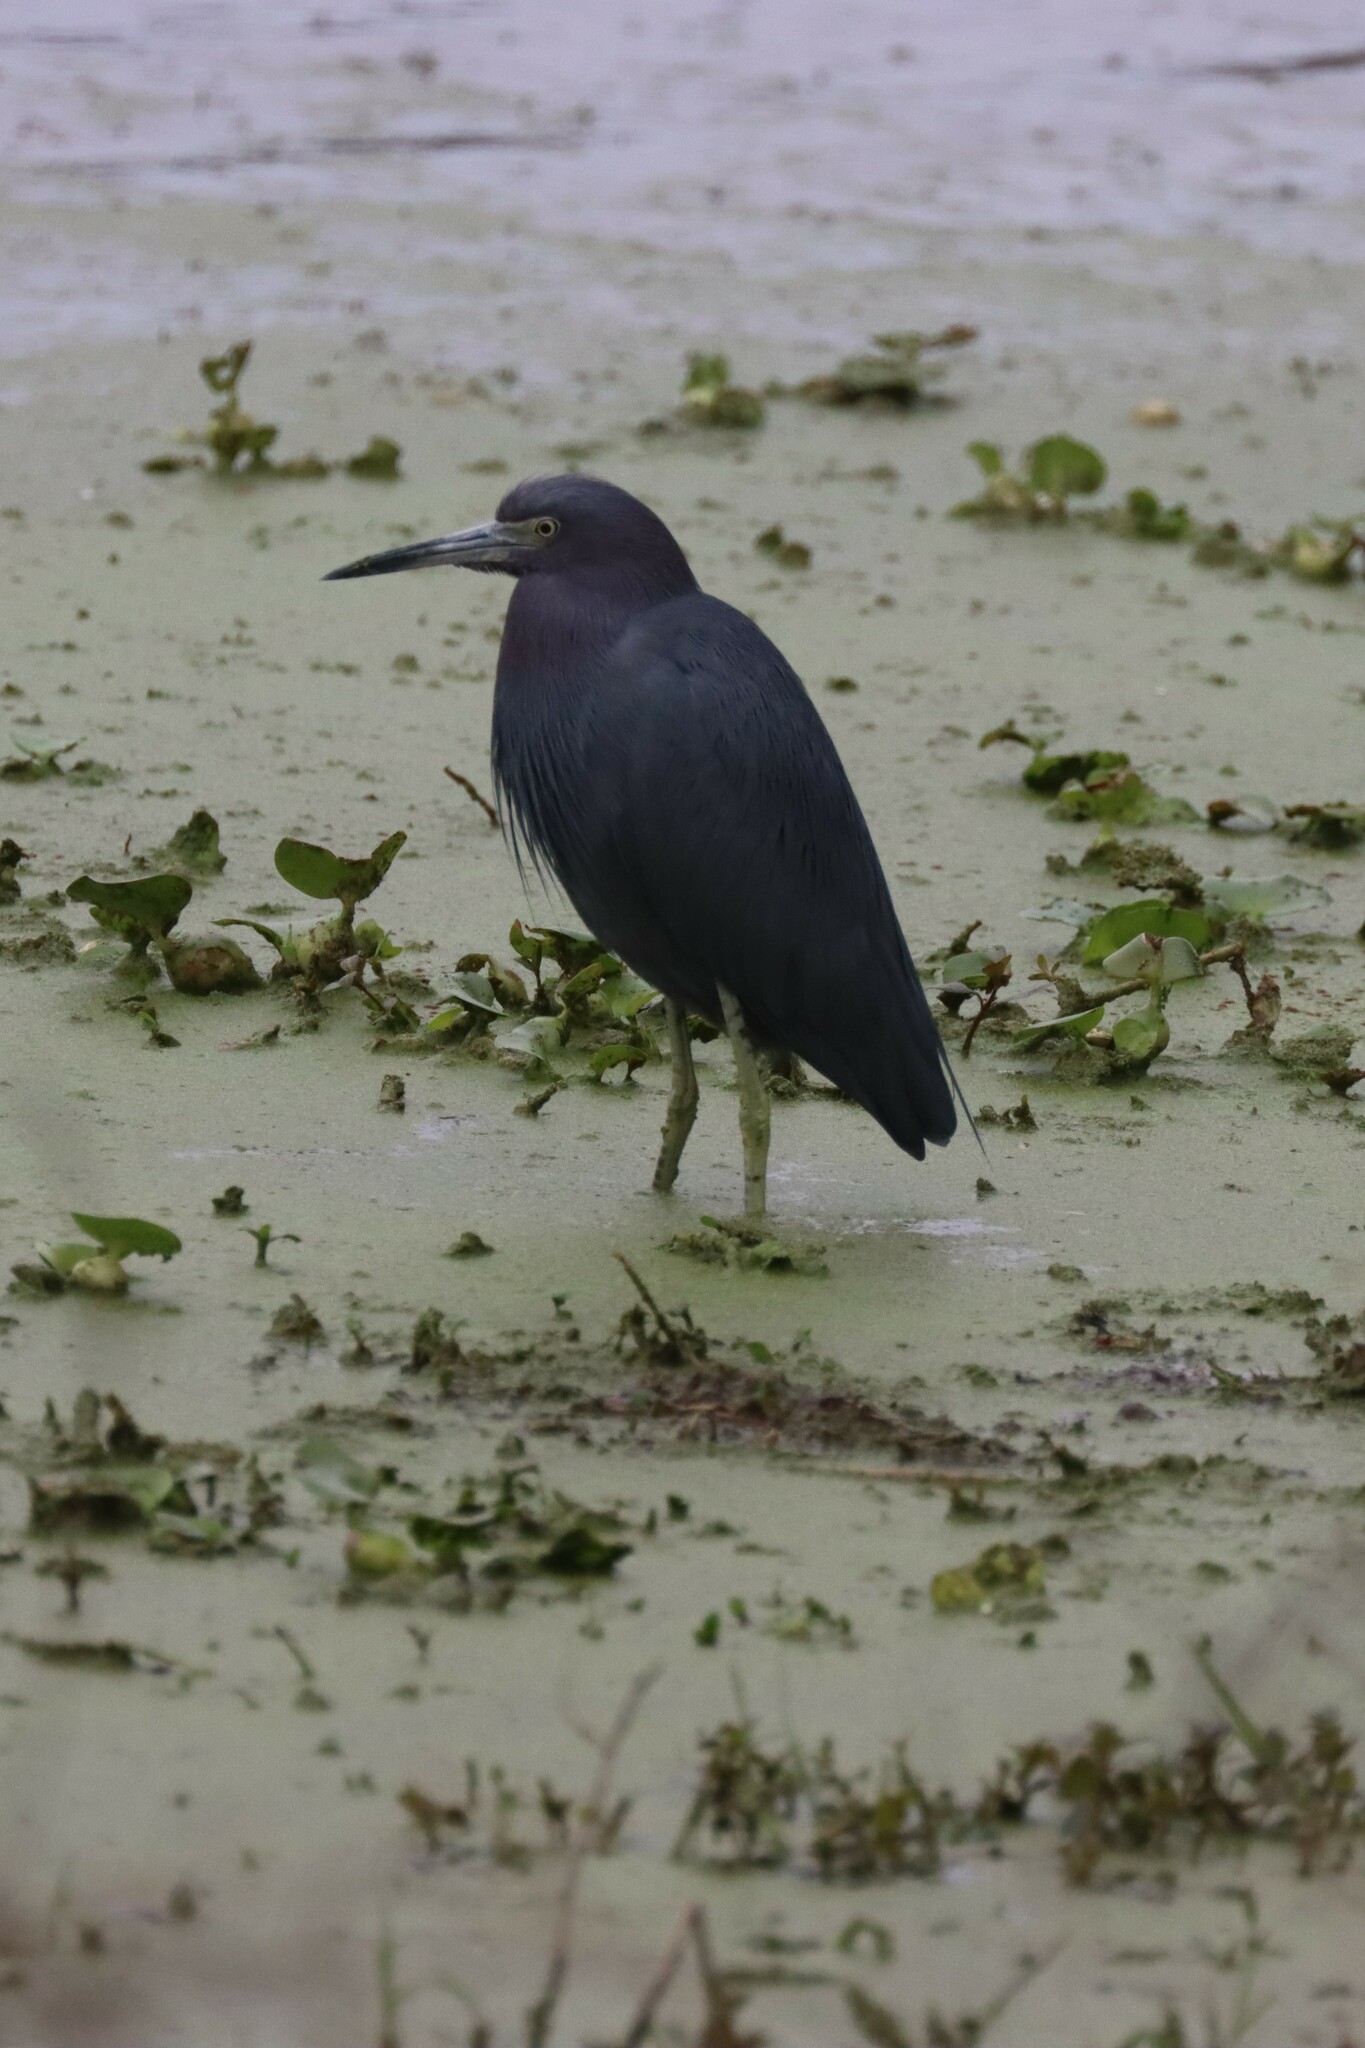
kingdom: Animalia
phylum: Chordata
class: Aves
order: Pelecaniformes
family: Ardeidae
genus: Egretta
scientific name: Egretta caerulea
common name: Little blue heron
